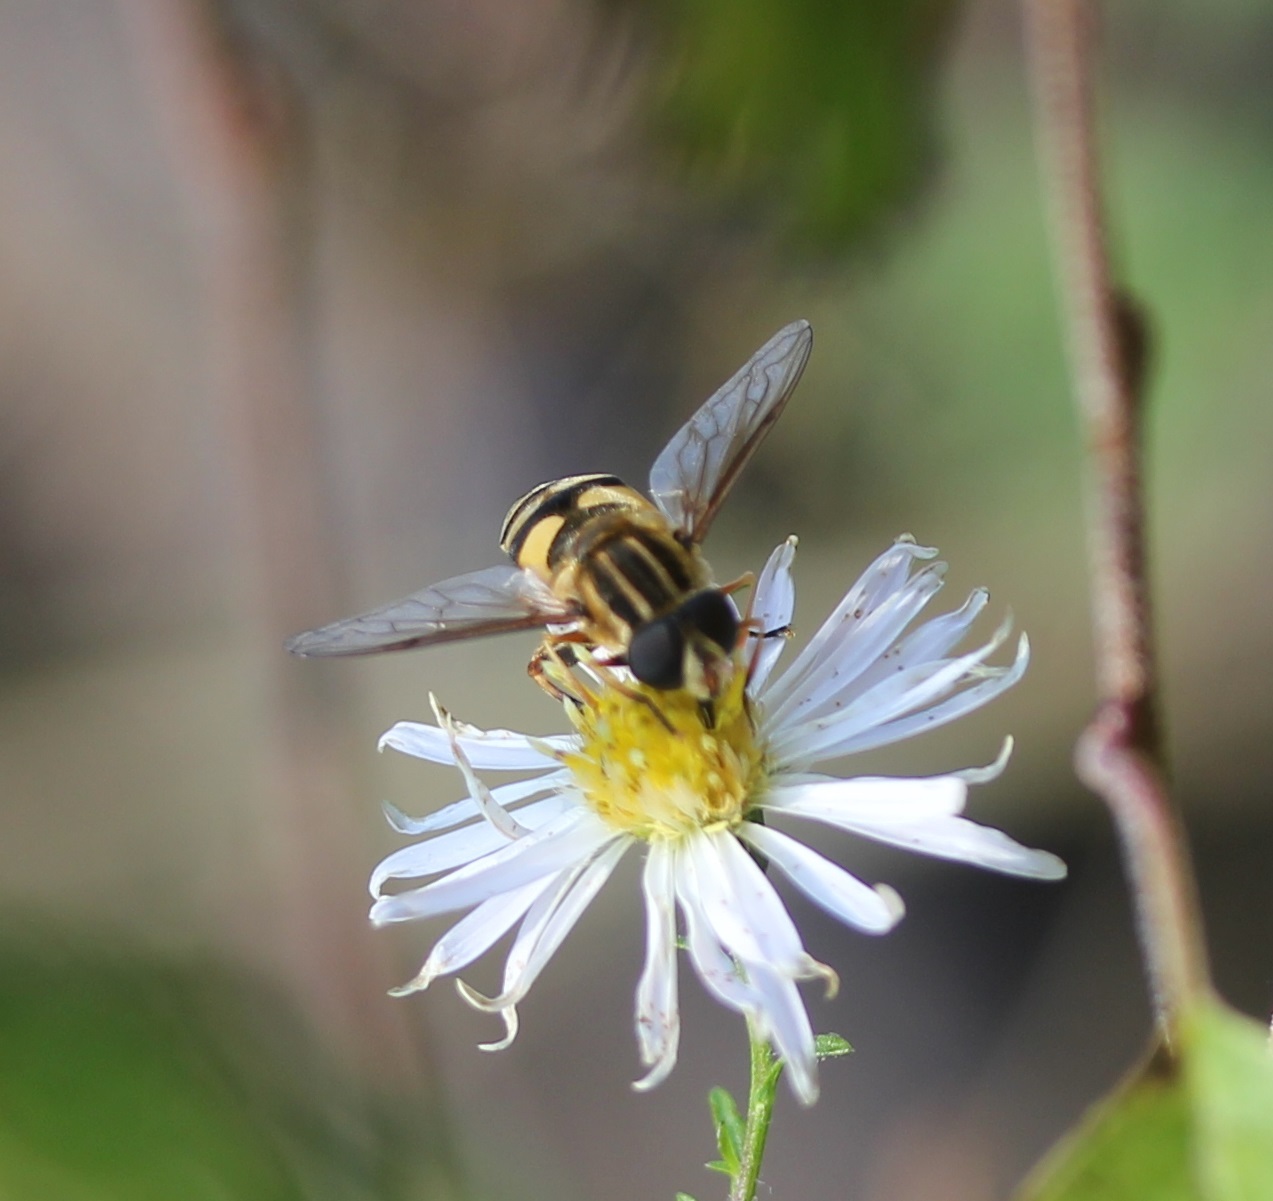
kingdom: Animalia
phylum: Arthropoda
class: Insecta
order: Diptera
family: Syrphidae
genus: Helophilus
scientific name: Helophilus fasciatus
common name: Narrow-headed marsh fly
